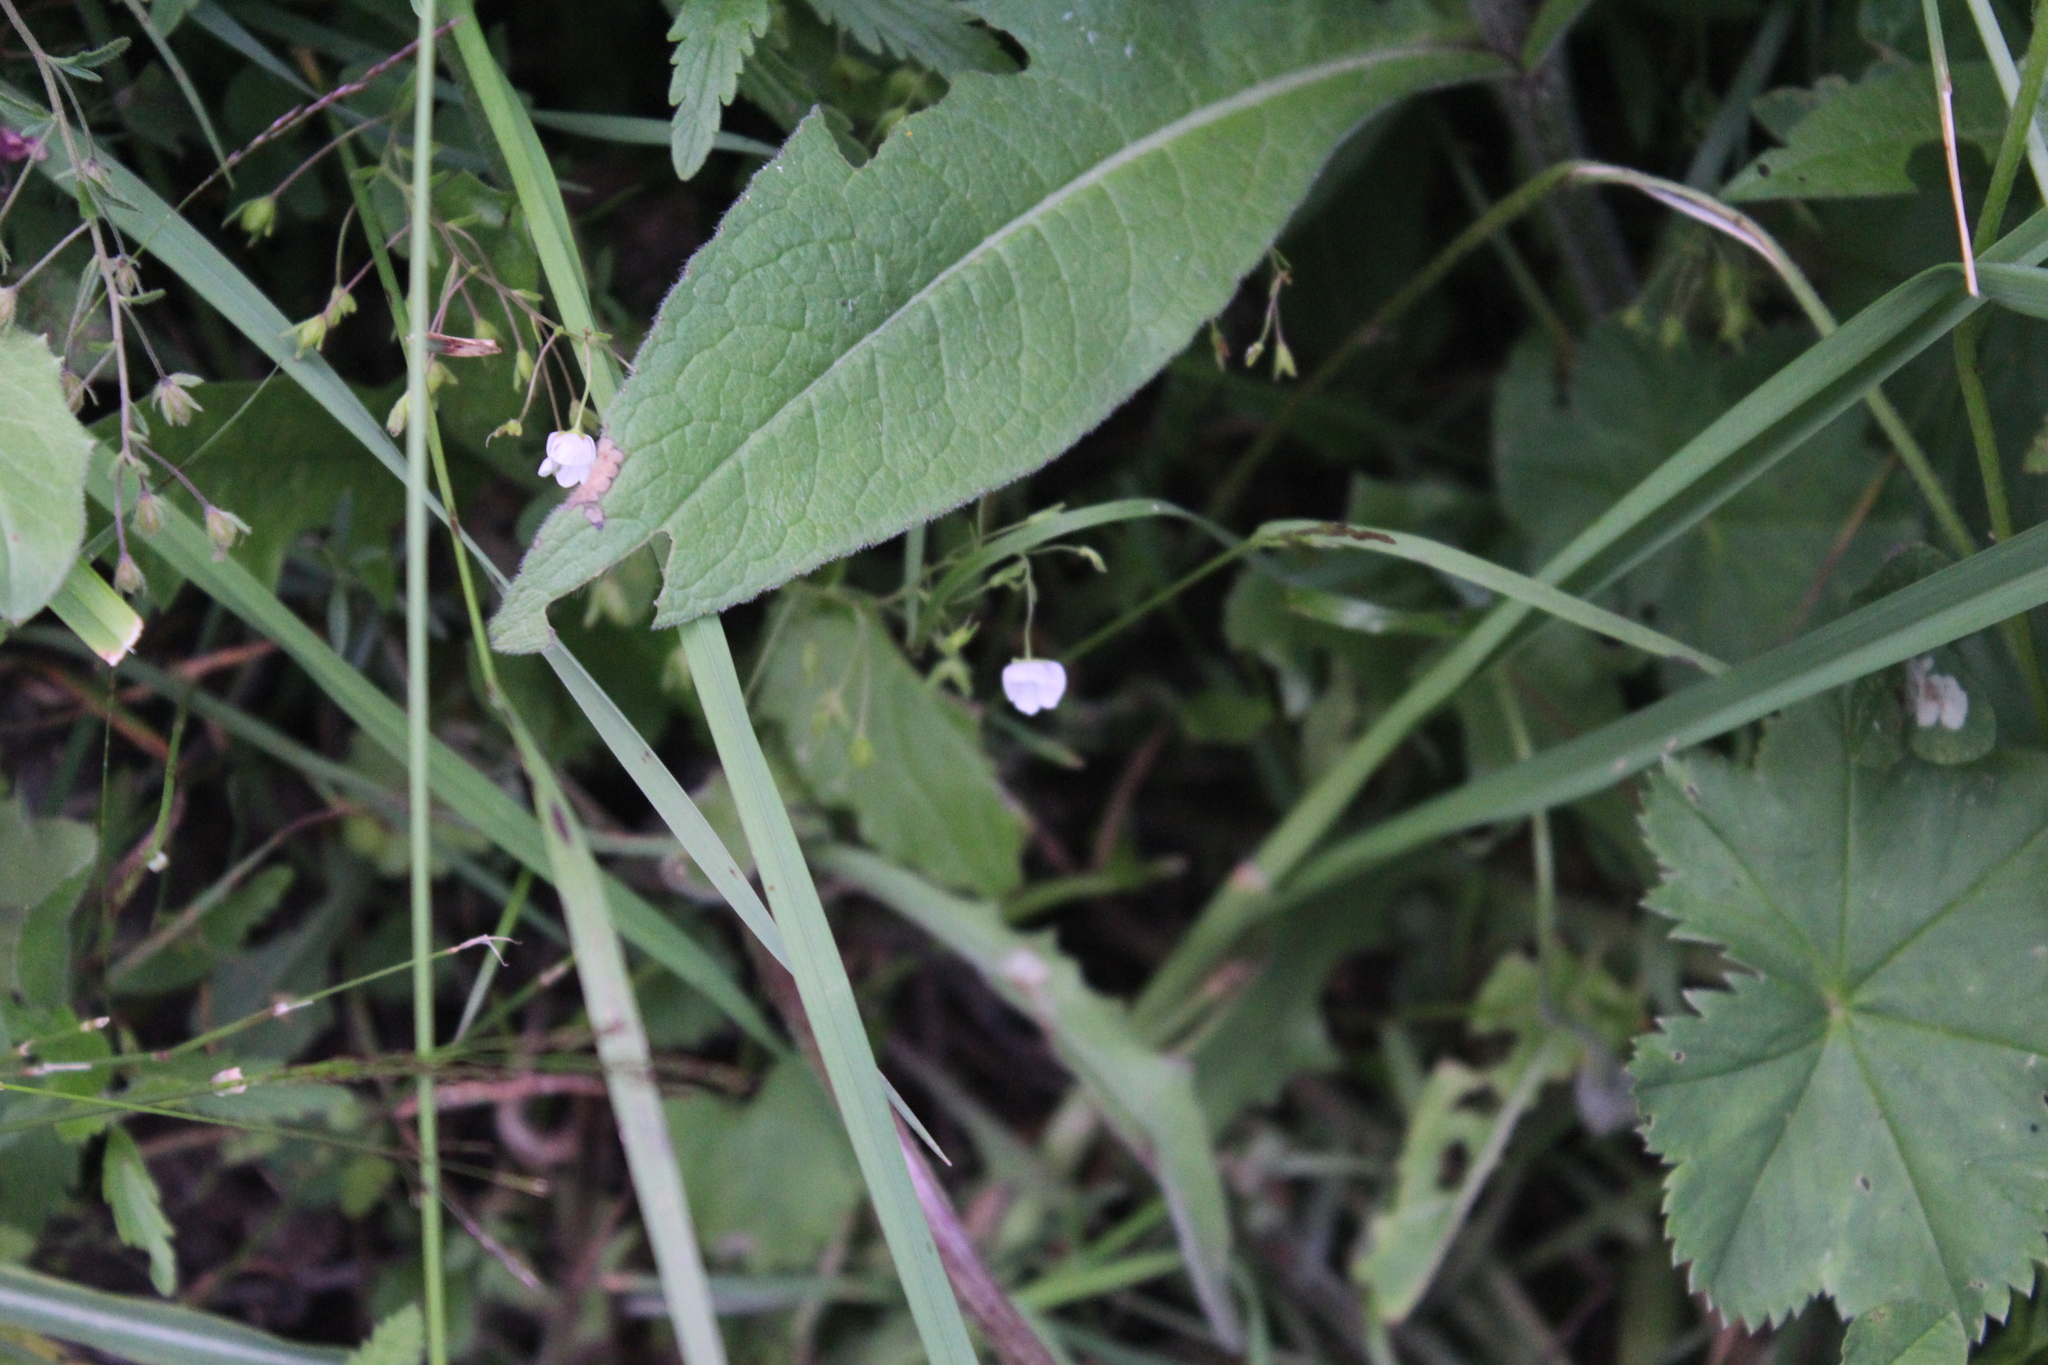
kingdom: Plantae
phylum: Tracheophyta
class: Magnoliopsida
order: Lamiales
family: Plantaginaceae
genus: Veronica
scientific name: Veronica peduncularis
